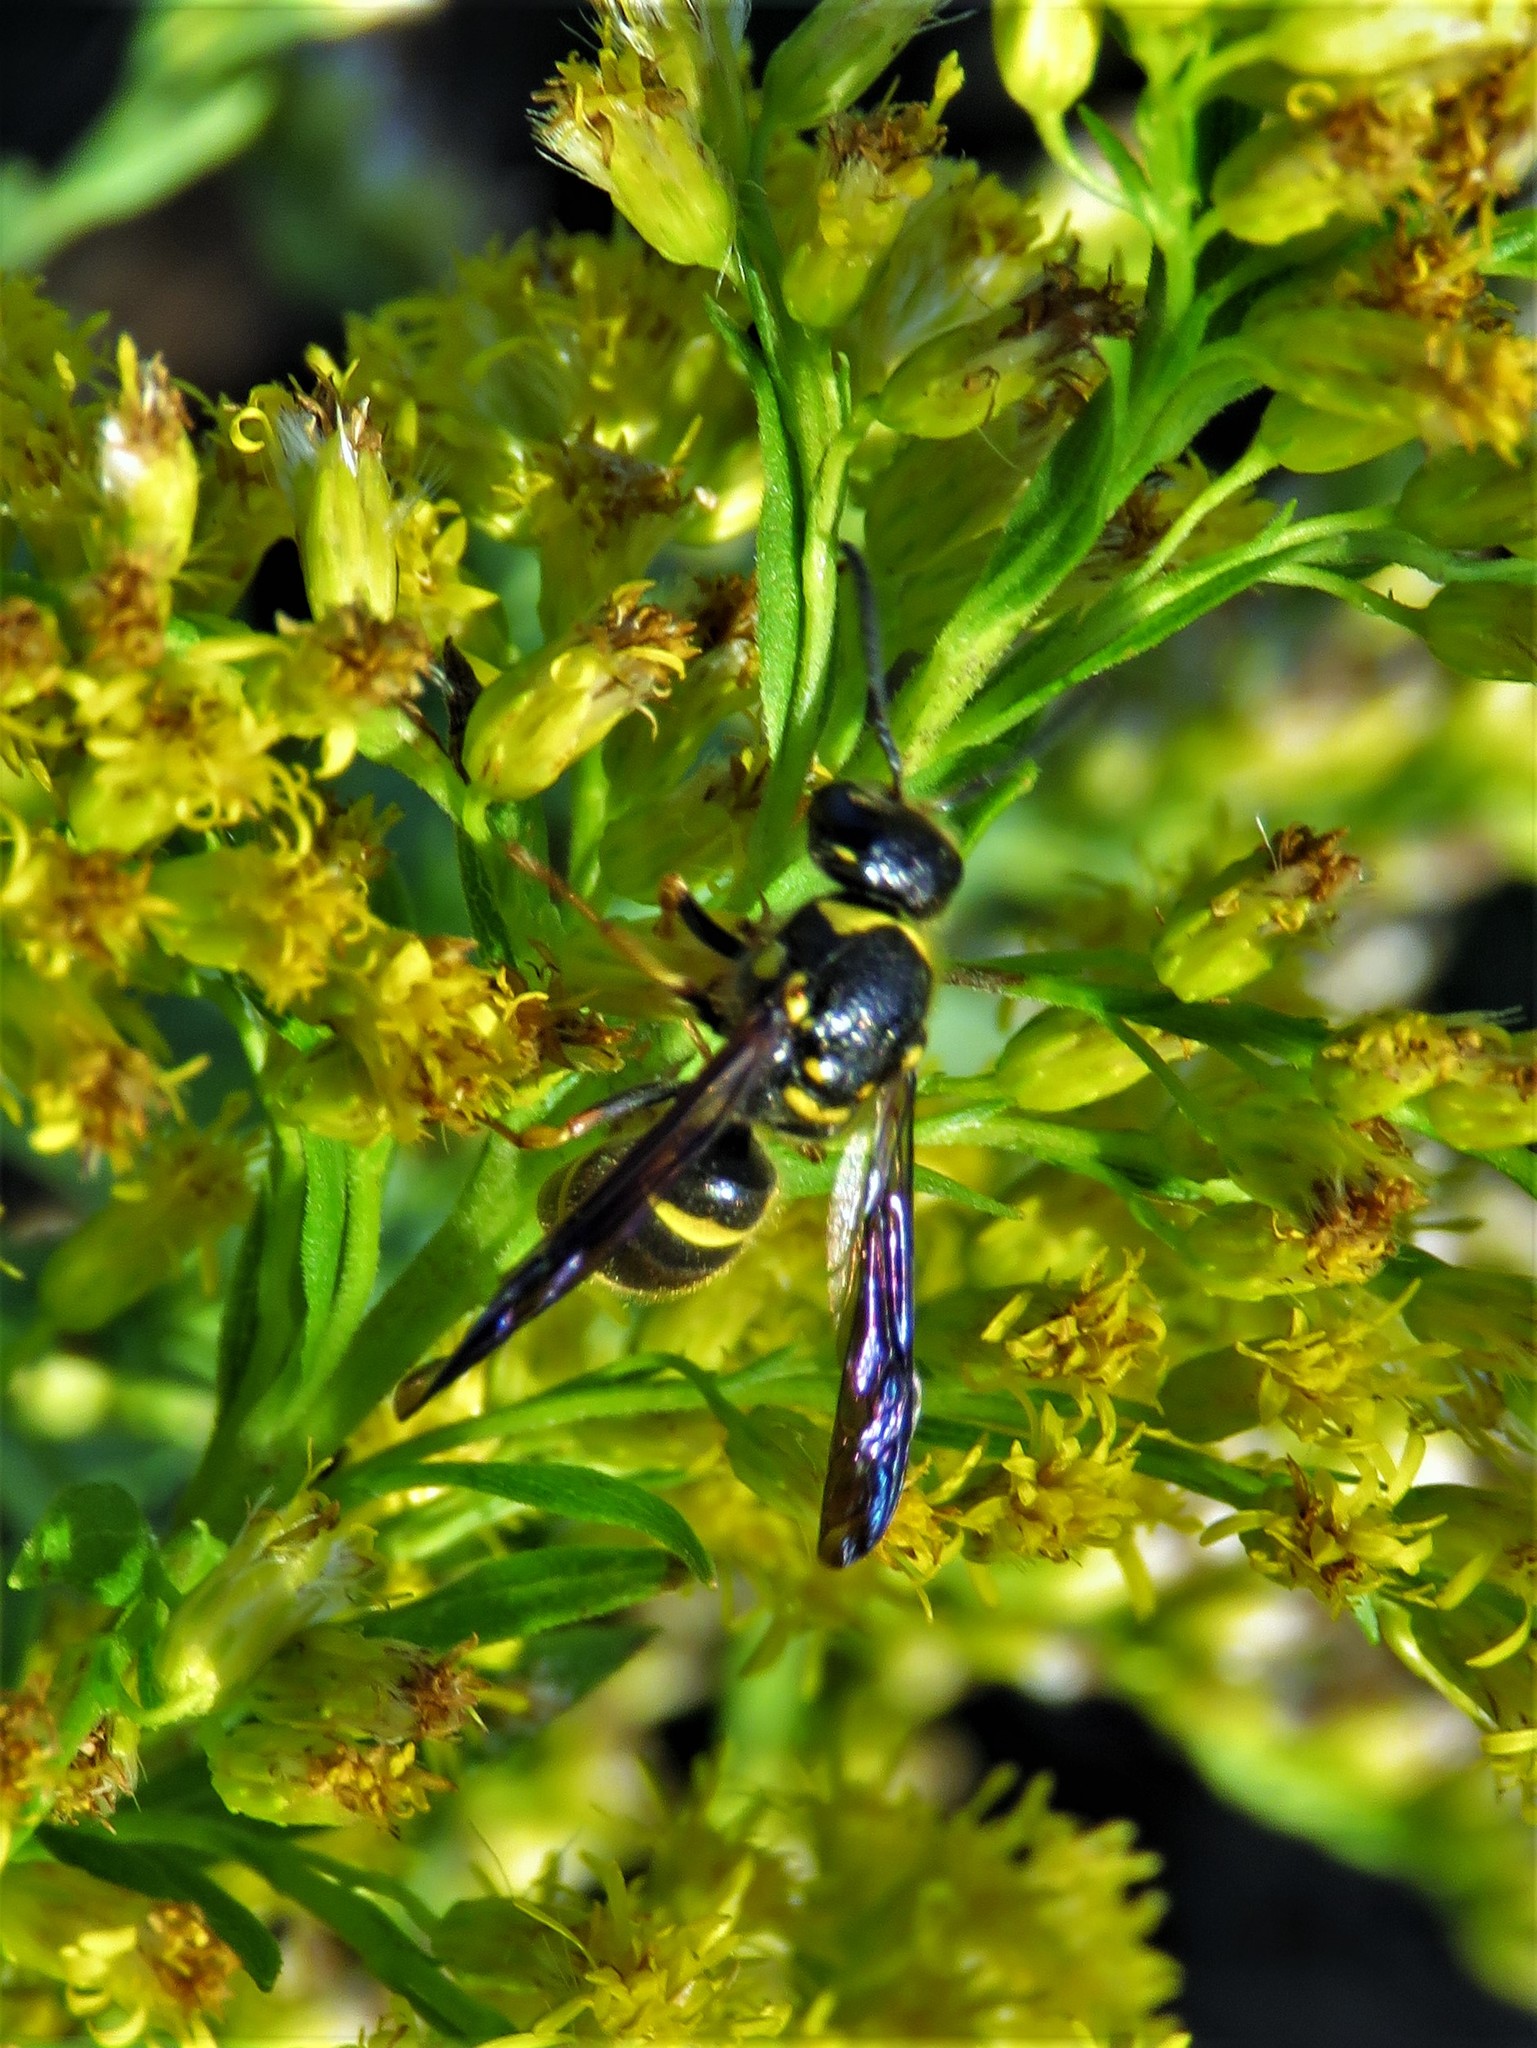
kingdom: Animalia
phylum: Arthropoda
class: Insecta
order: Hymenoptera
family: Vespidae
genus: Ancistrocerus
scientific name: Ancistrocerus campestris
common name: Smiling mason wasp
